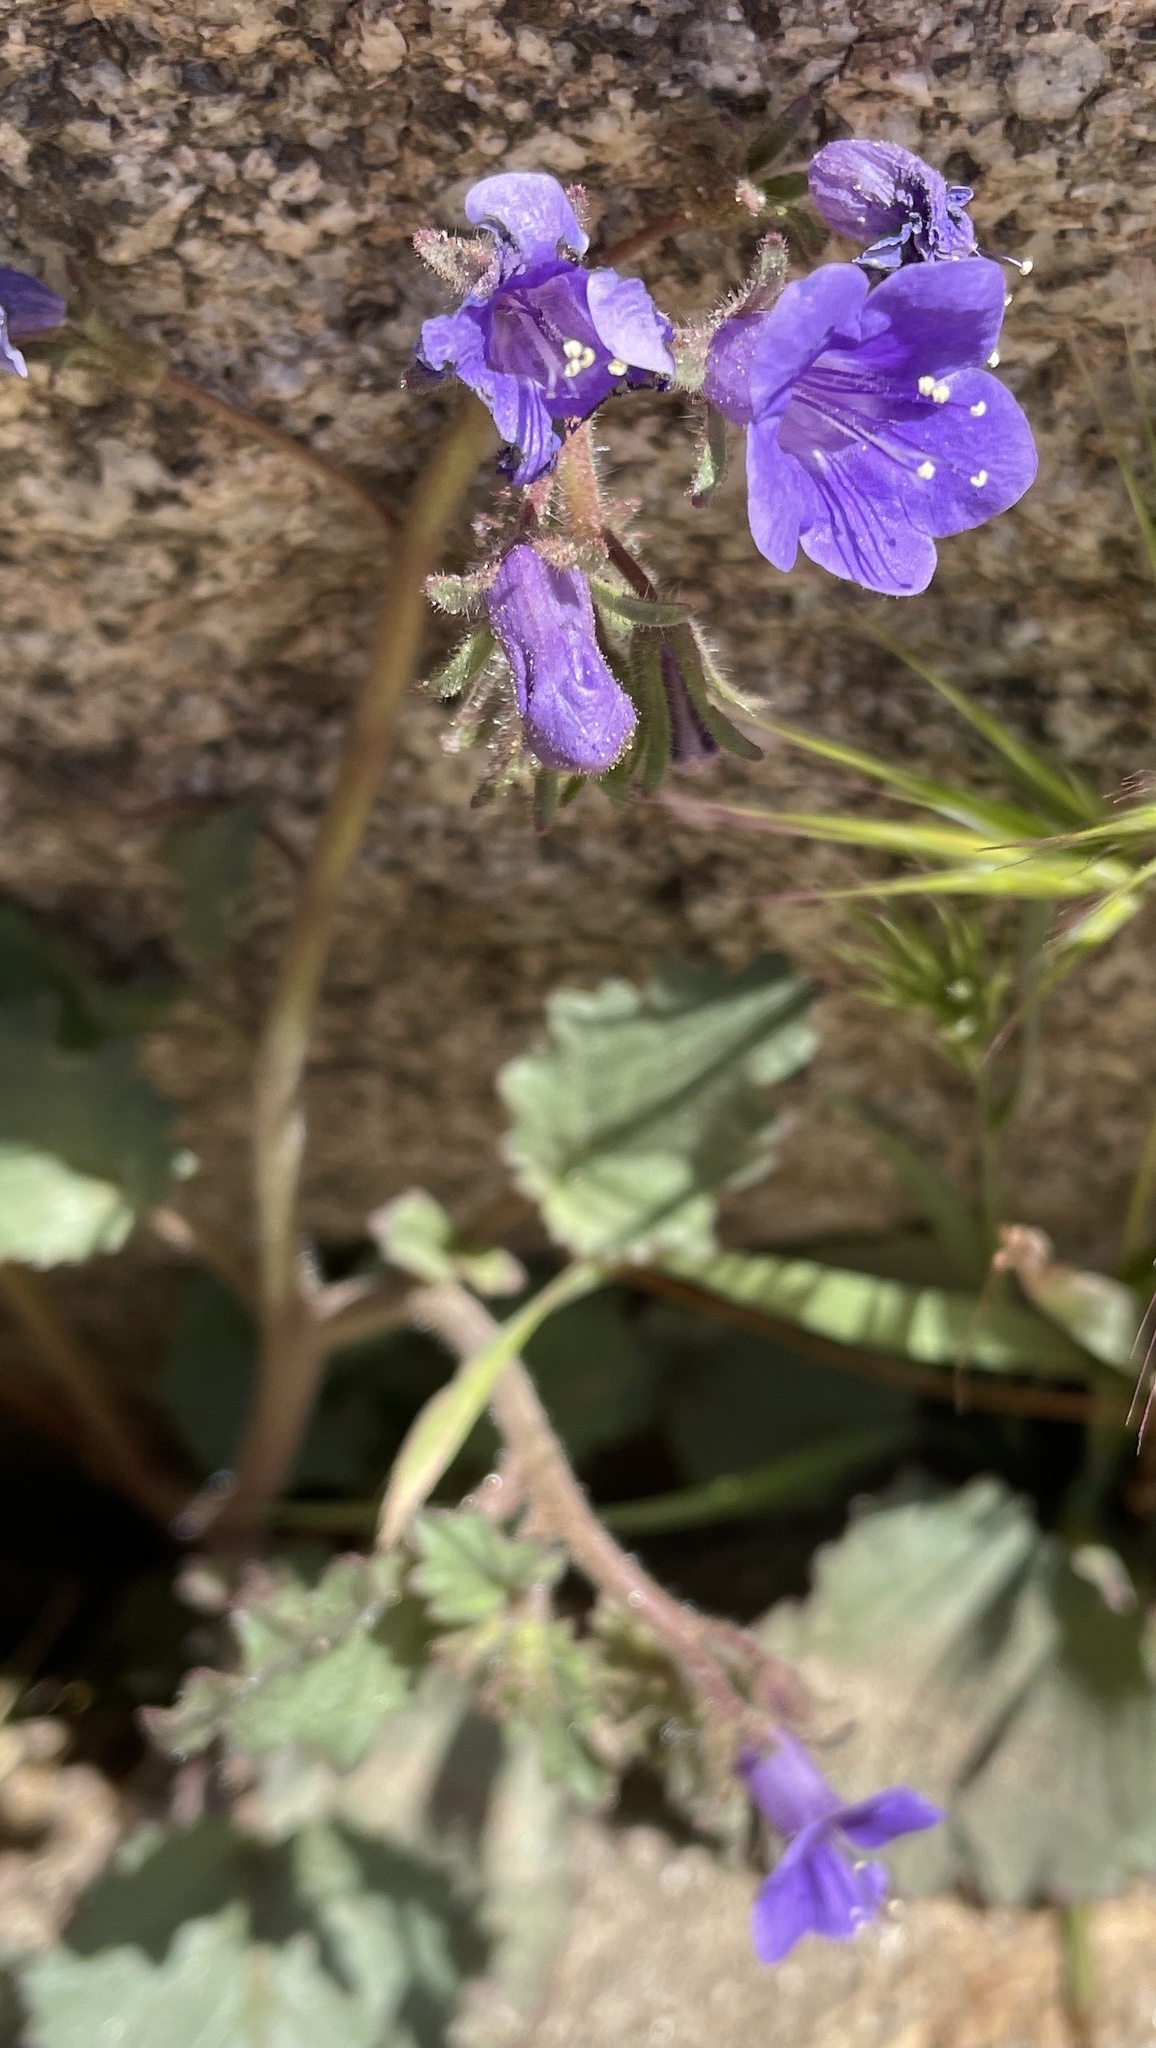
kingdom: Plantae
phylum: Tracheophyta
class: Magnoliopsida
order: Boraginales
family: Hydrophyllaceae
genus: Phacelia
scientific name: Phacelia minor
